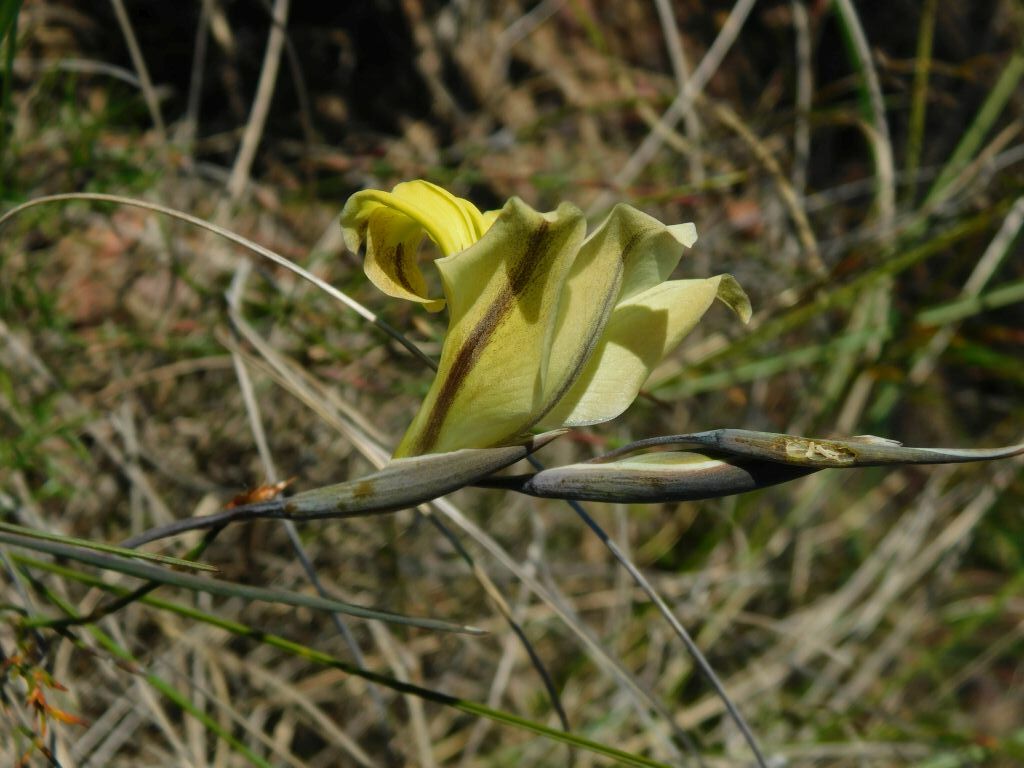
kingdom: Plantae
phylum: Tracheophyta
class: Liliopsida
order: Asparagales
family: Iridaceae
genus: Gladiolus
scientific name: Gladiolus carinatus
